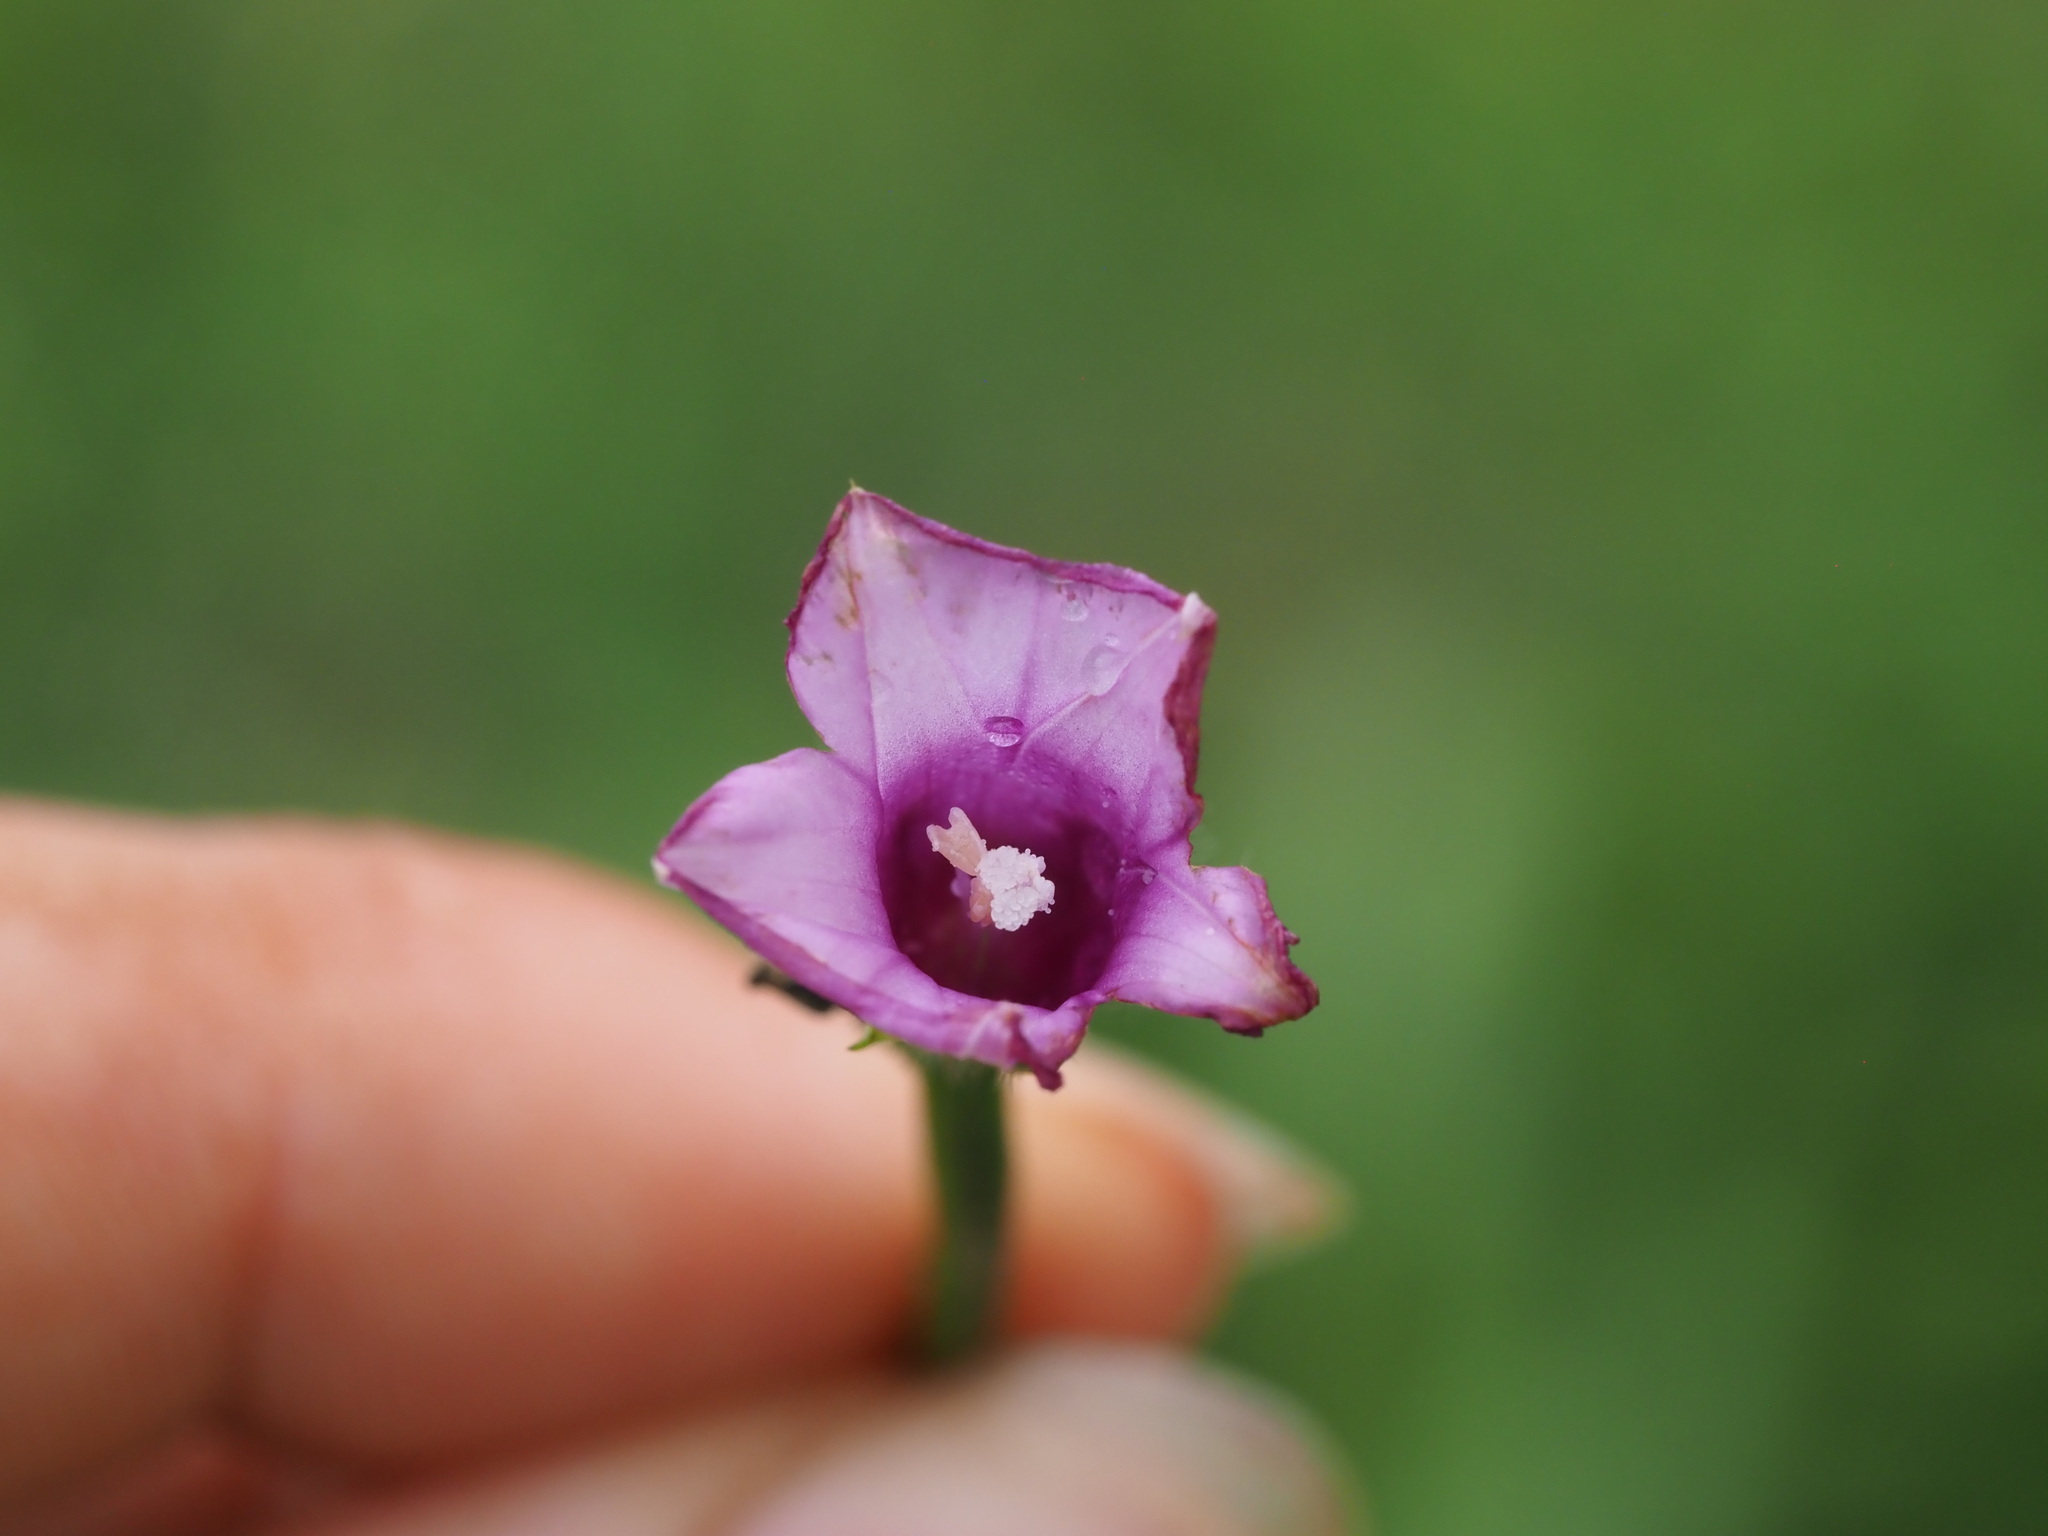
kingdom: Plantae
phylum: Tracheophyta
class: Magnoliopsida
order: Solanales
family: Convolvulaceae
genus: Ipomoea
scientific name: Ipomoea triloba
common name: Little-bell
